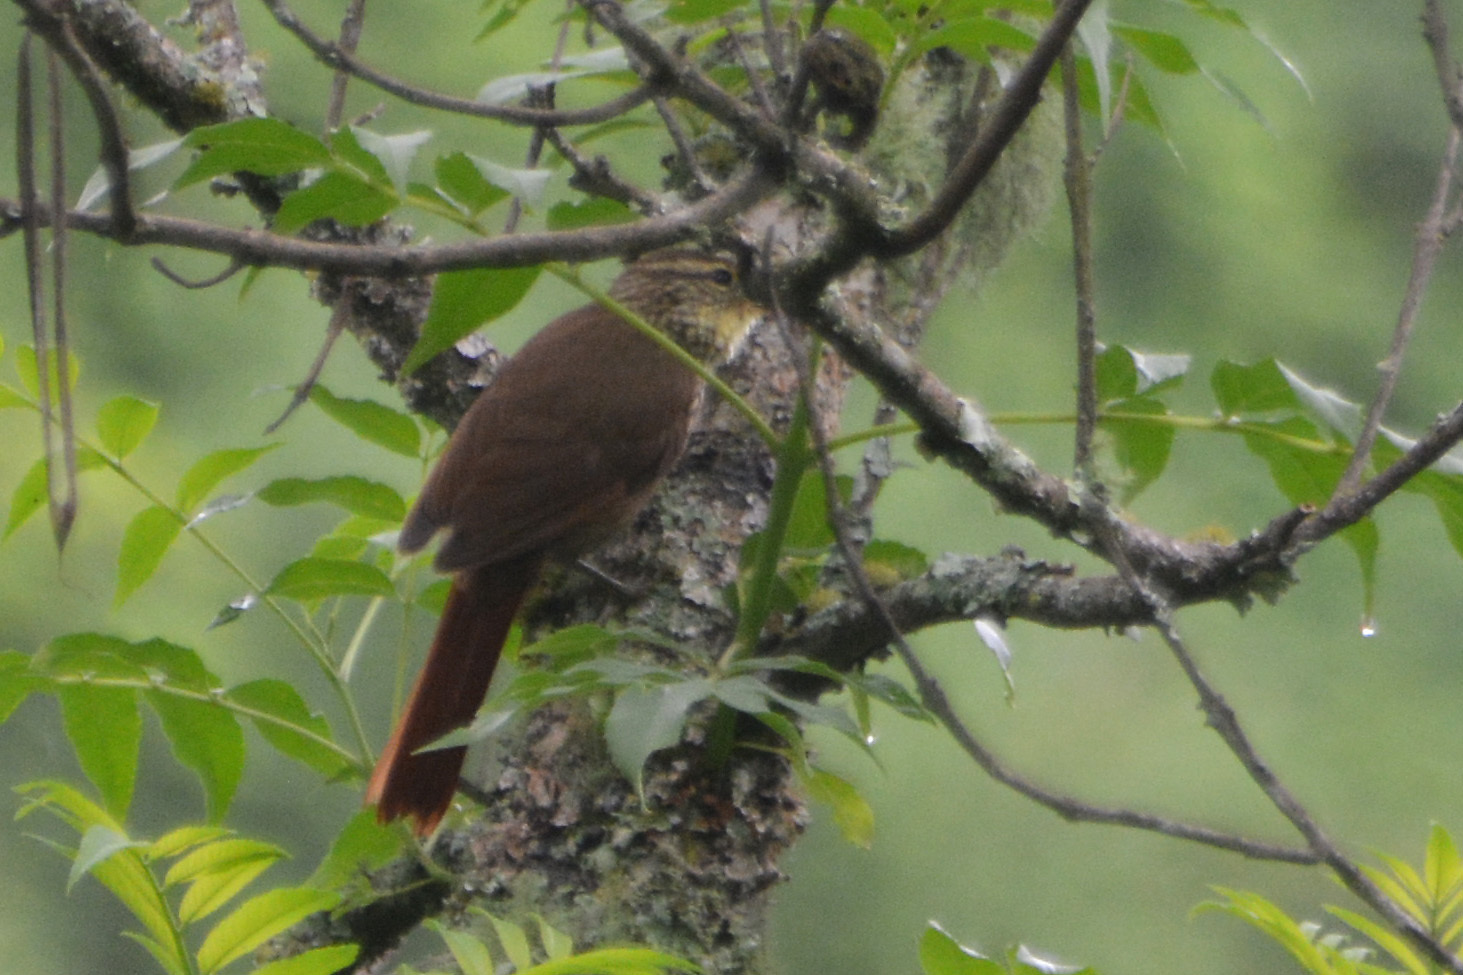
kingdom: Animalia
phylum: Chordata
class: Aves
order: Passeriformes
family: Furnariidae
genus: Syndactyla
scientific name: Syndactyla rufosuperciliata
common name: Buff-browed foliage-gleaner
